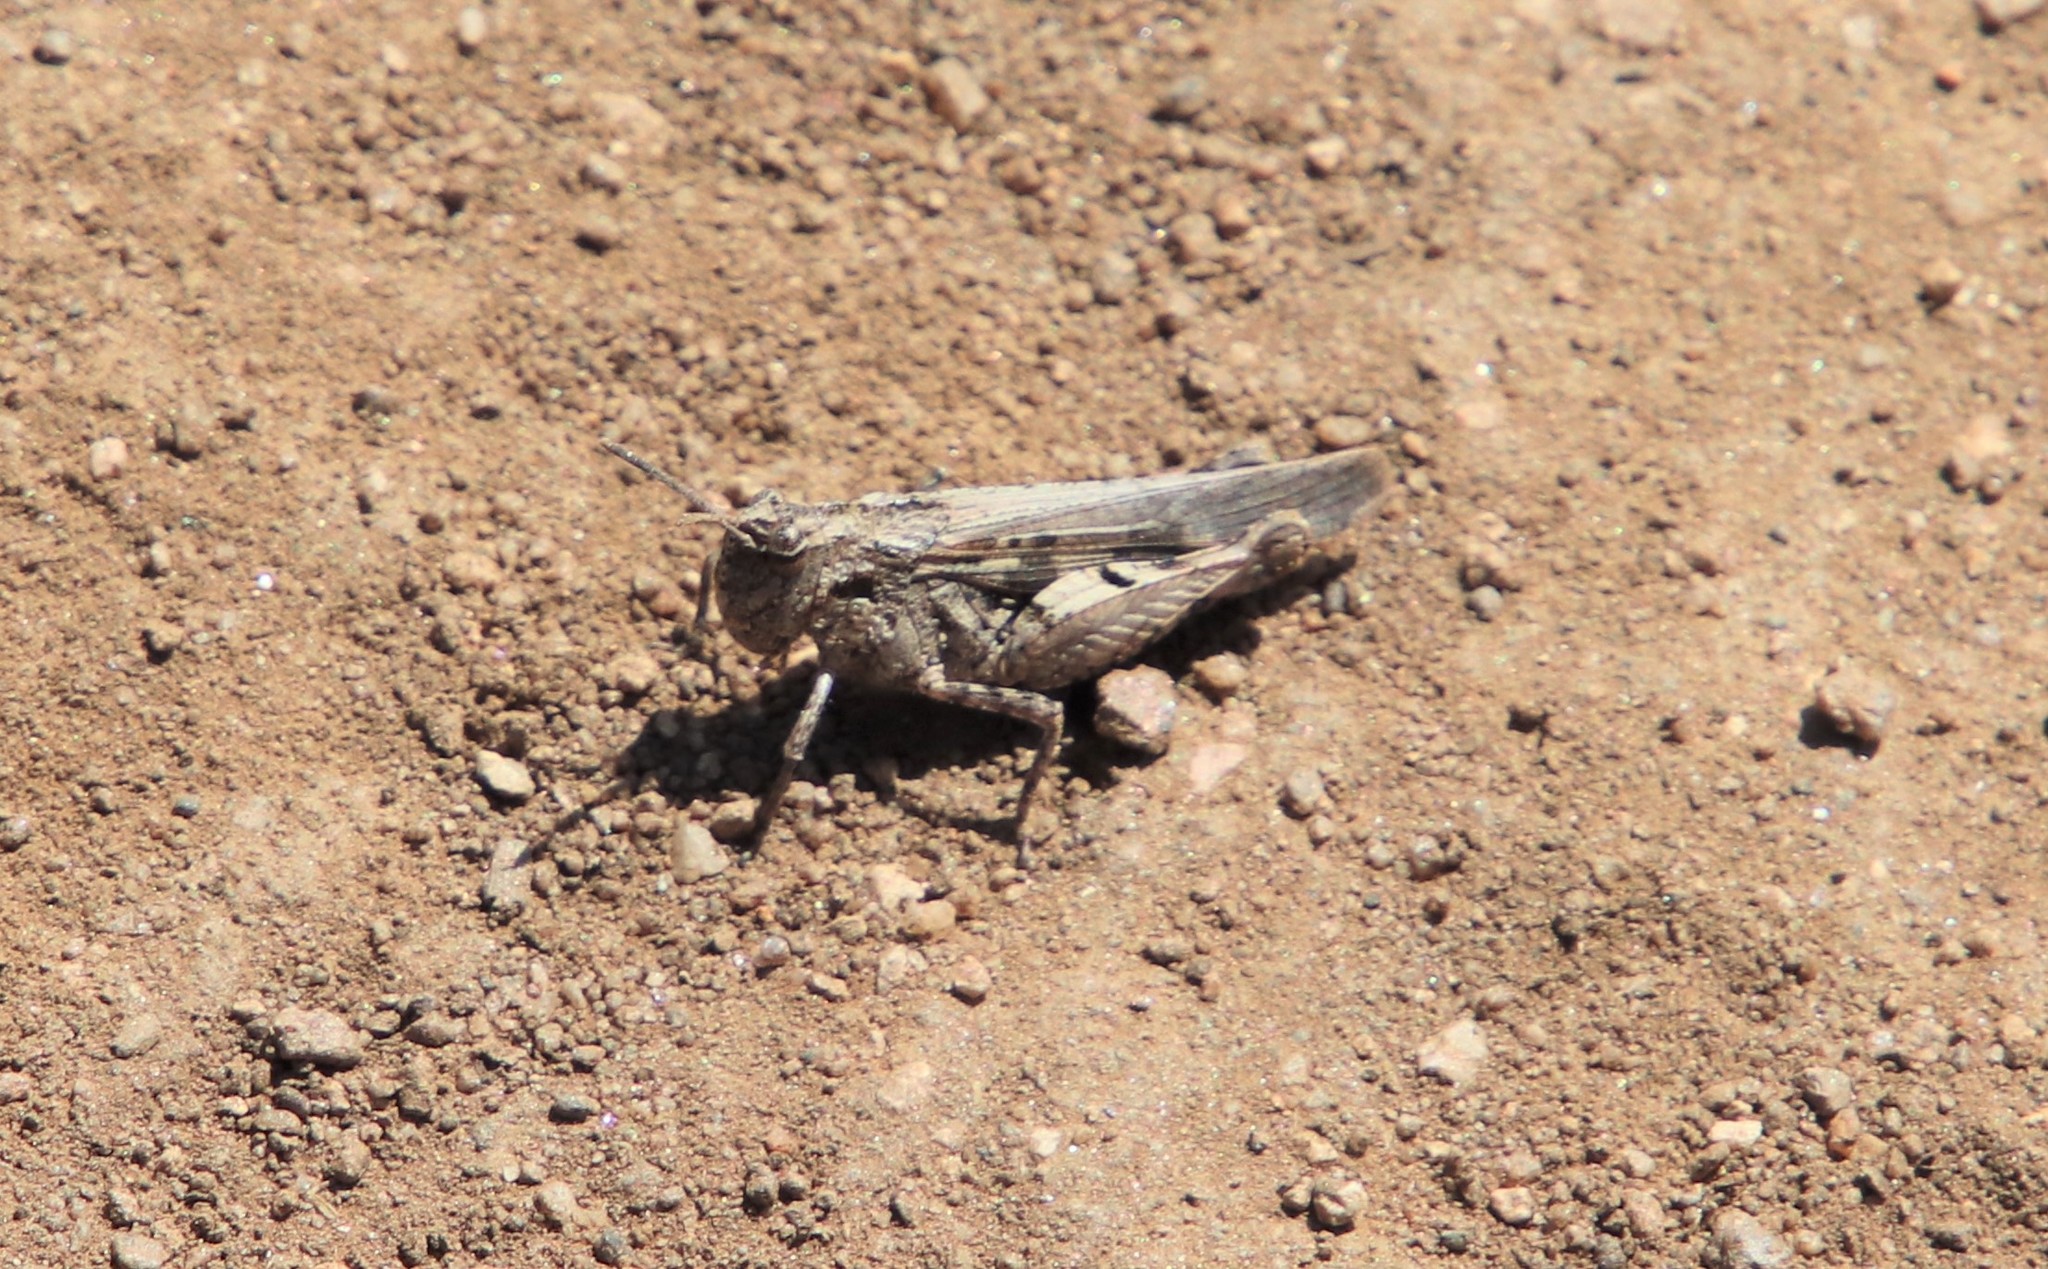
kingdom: Animalia
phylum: Arthropoda
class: Insecta
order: Orthoptera
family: Acrididae
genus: Chimarocephala
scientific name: Chimarocephala pacifica
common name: Painted meadow grasshopper
